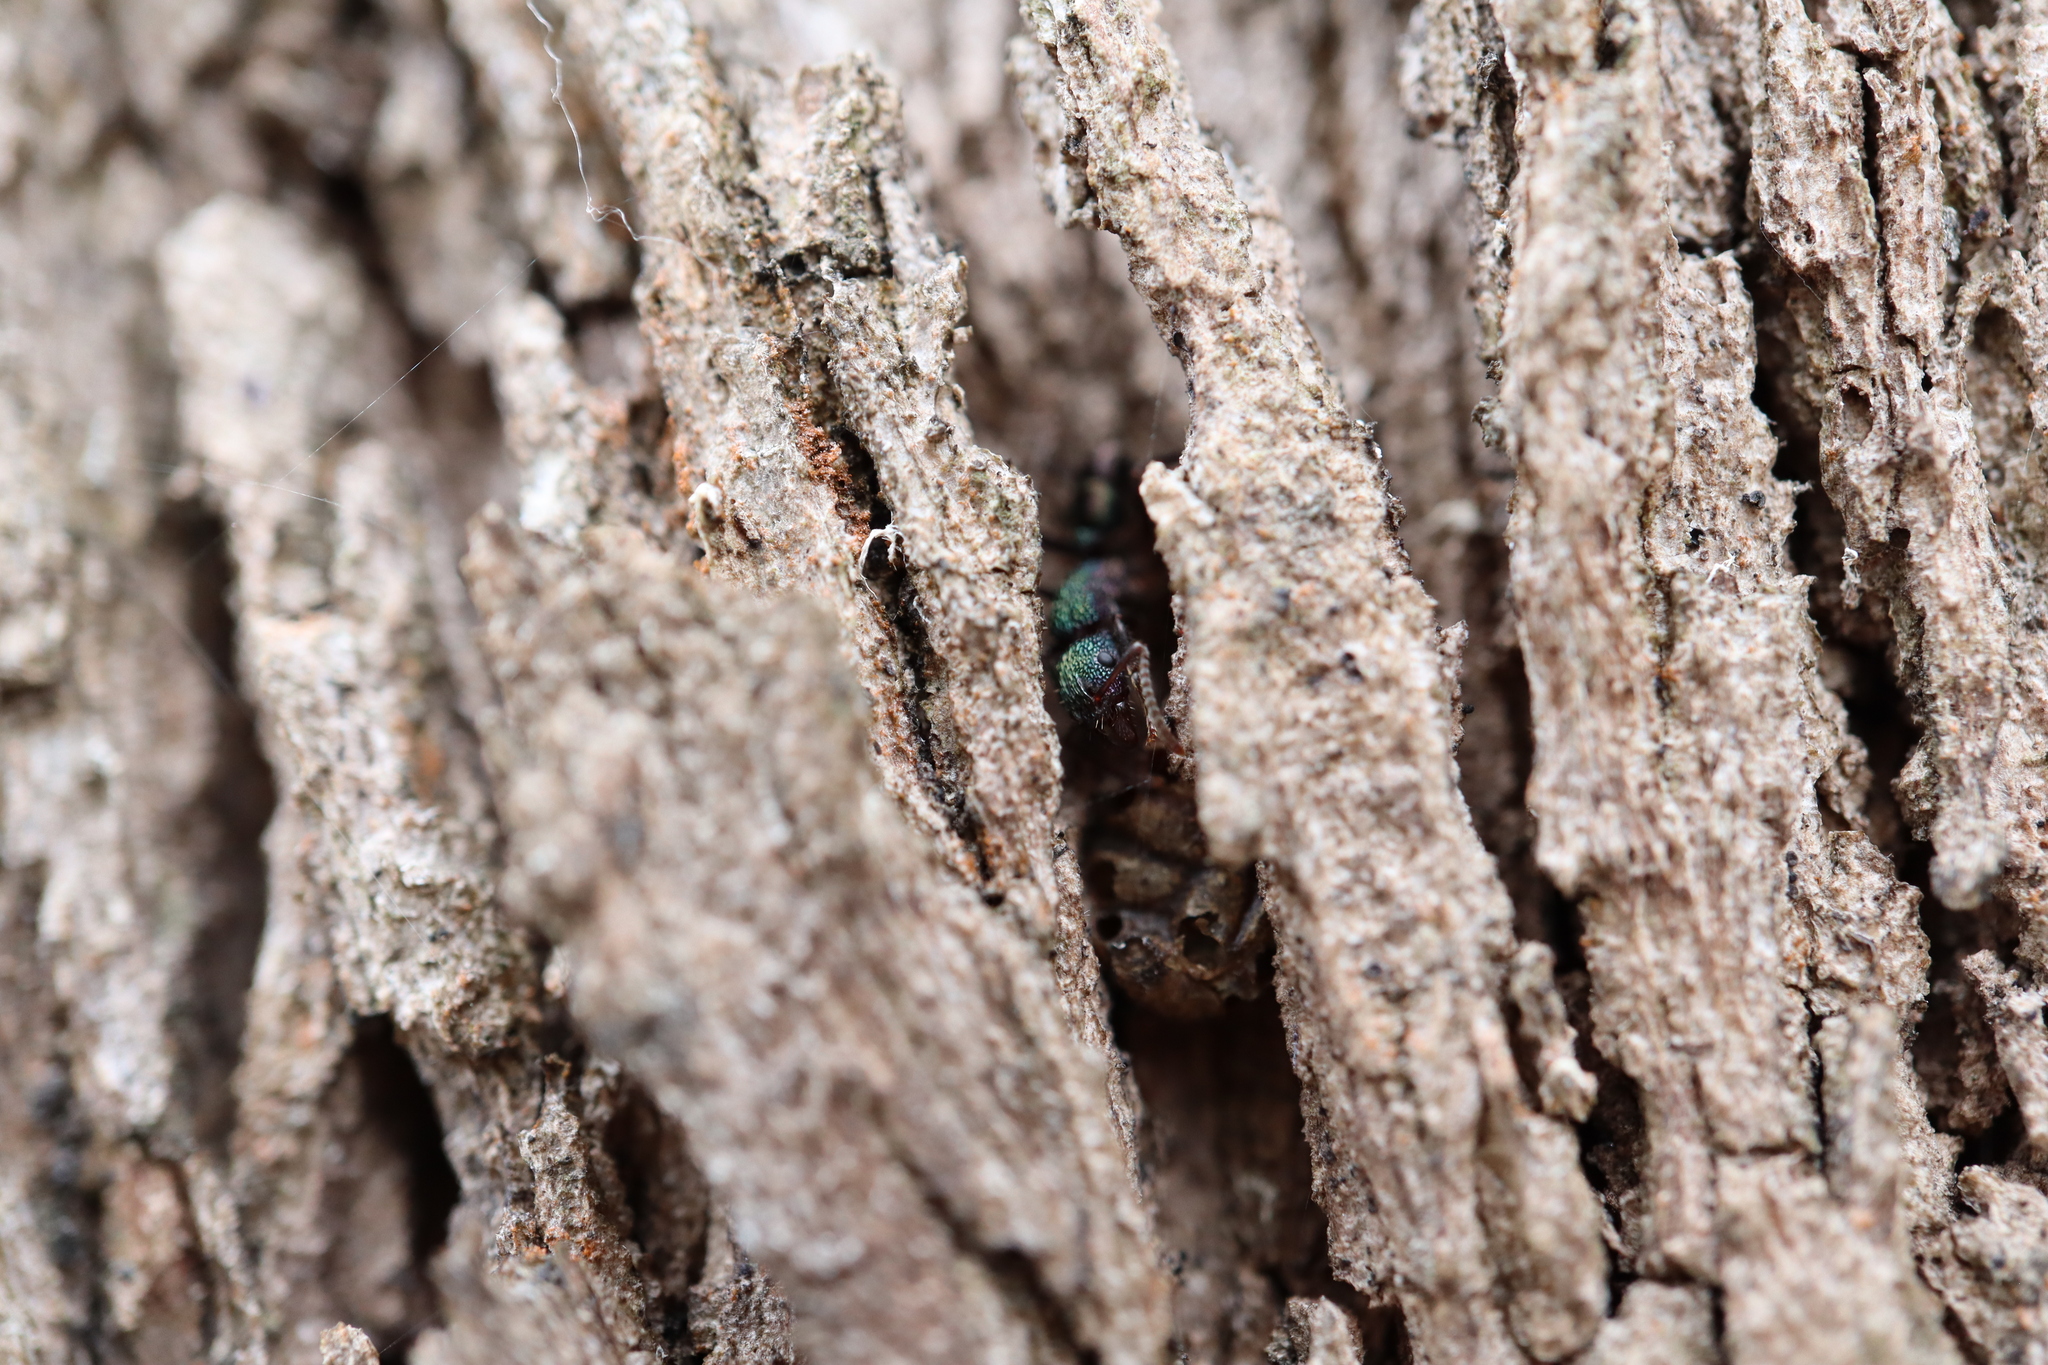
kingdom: Animalia
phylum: Arthropoda
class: Insecta
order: Hymenoptera
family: Formicidae
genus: Rhytidoponera
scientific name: Rhytidoponera metallica
